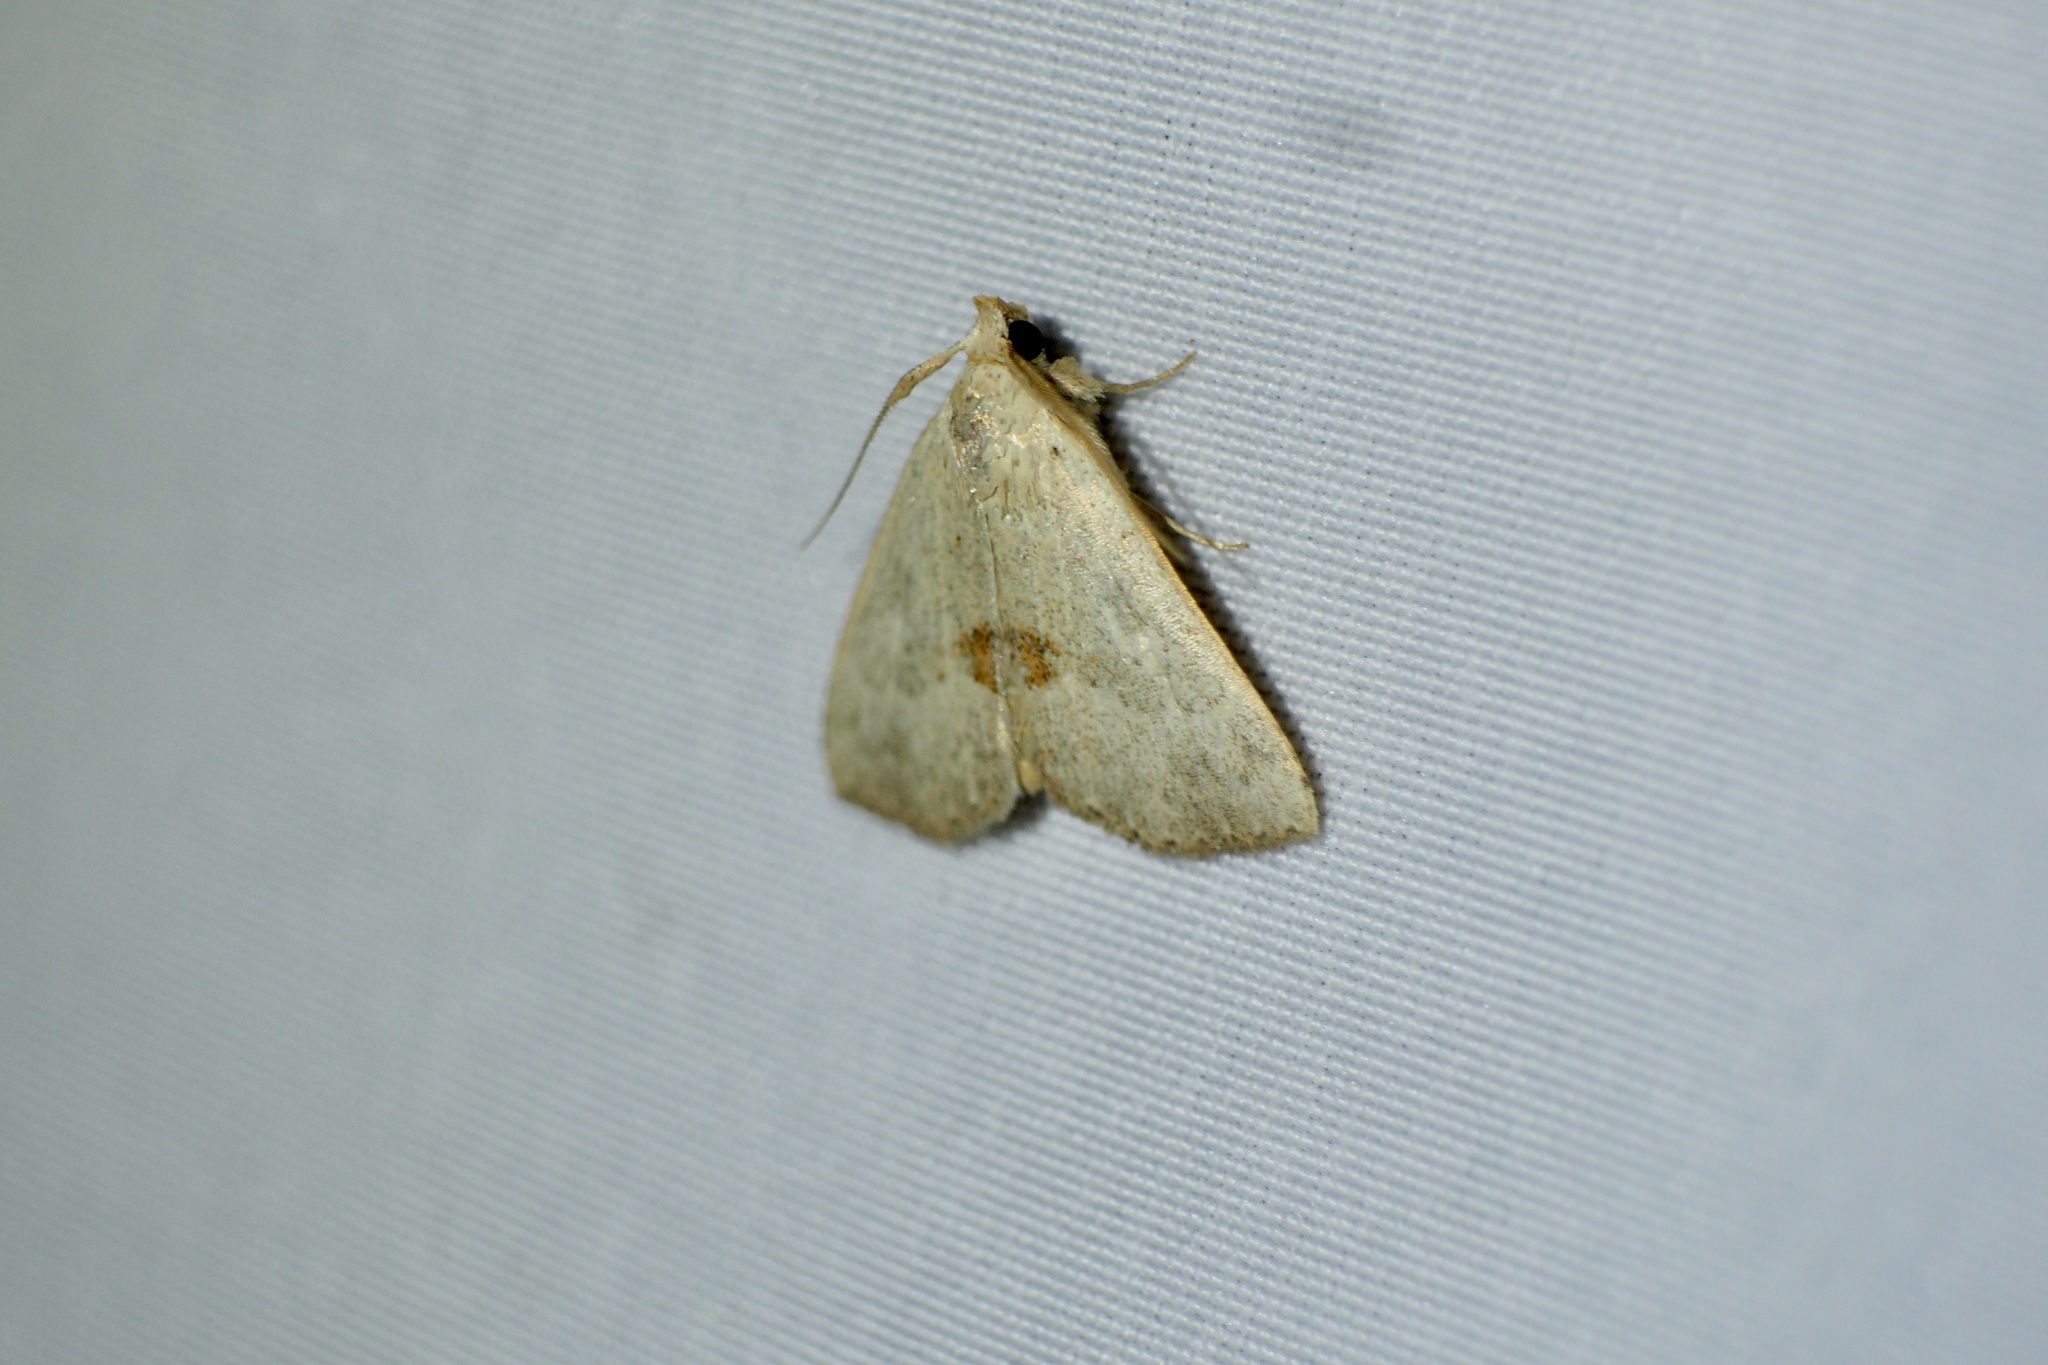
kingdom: Animalia
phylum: Arthropoda
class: Insecta
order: Lepidoptera
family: Erebidae
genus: Gesonia
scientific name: Gesonia fallax
